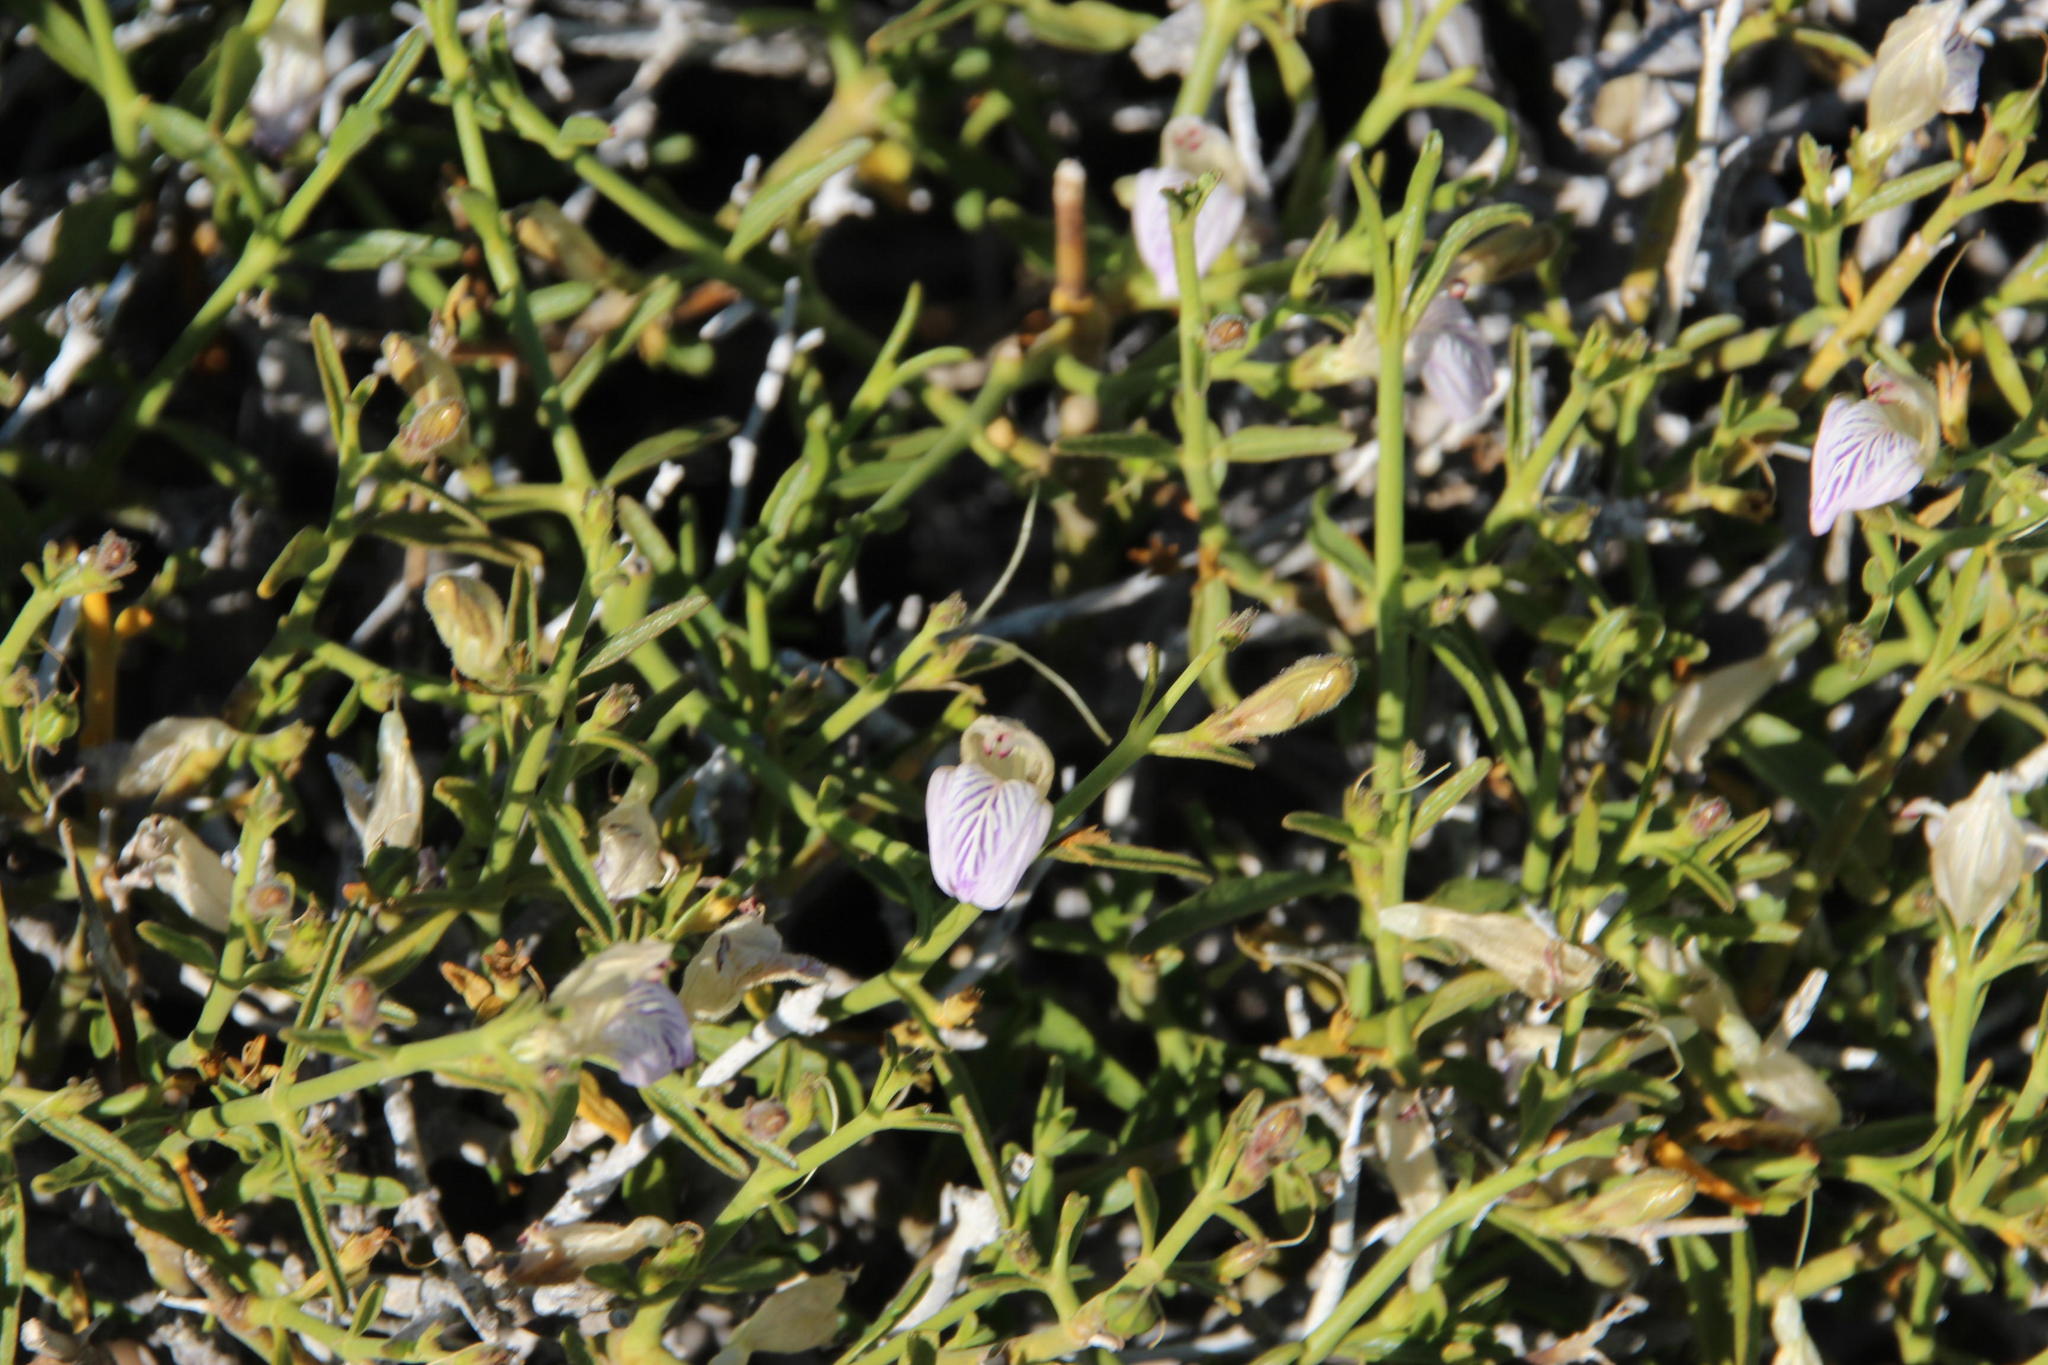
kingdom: Plantae
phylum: Tracheophyta
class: Magnoliopsida
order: Lamiales
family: Acanthaceae
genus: Pogonospermum
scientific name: Pogonospermum
